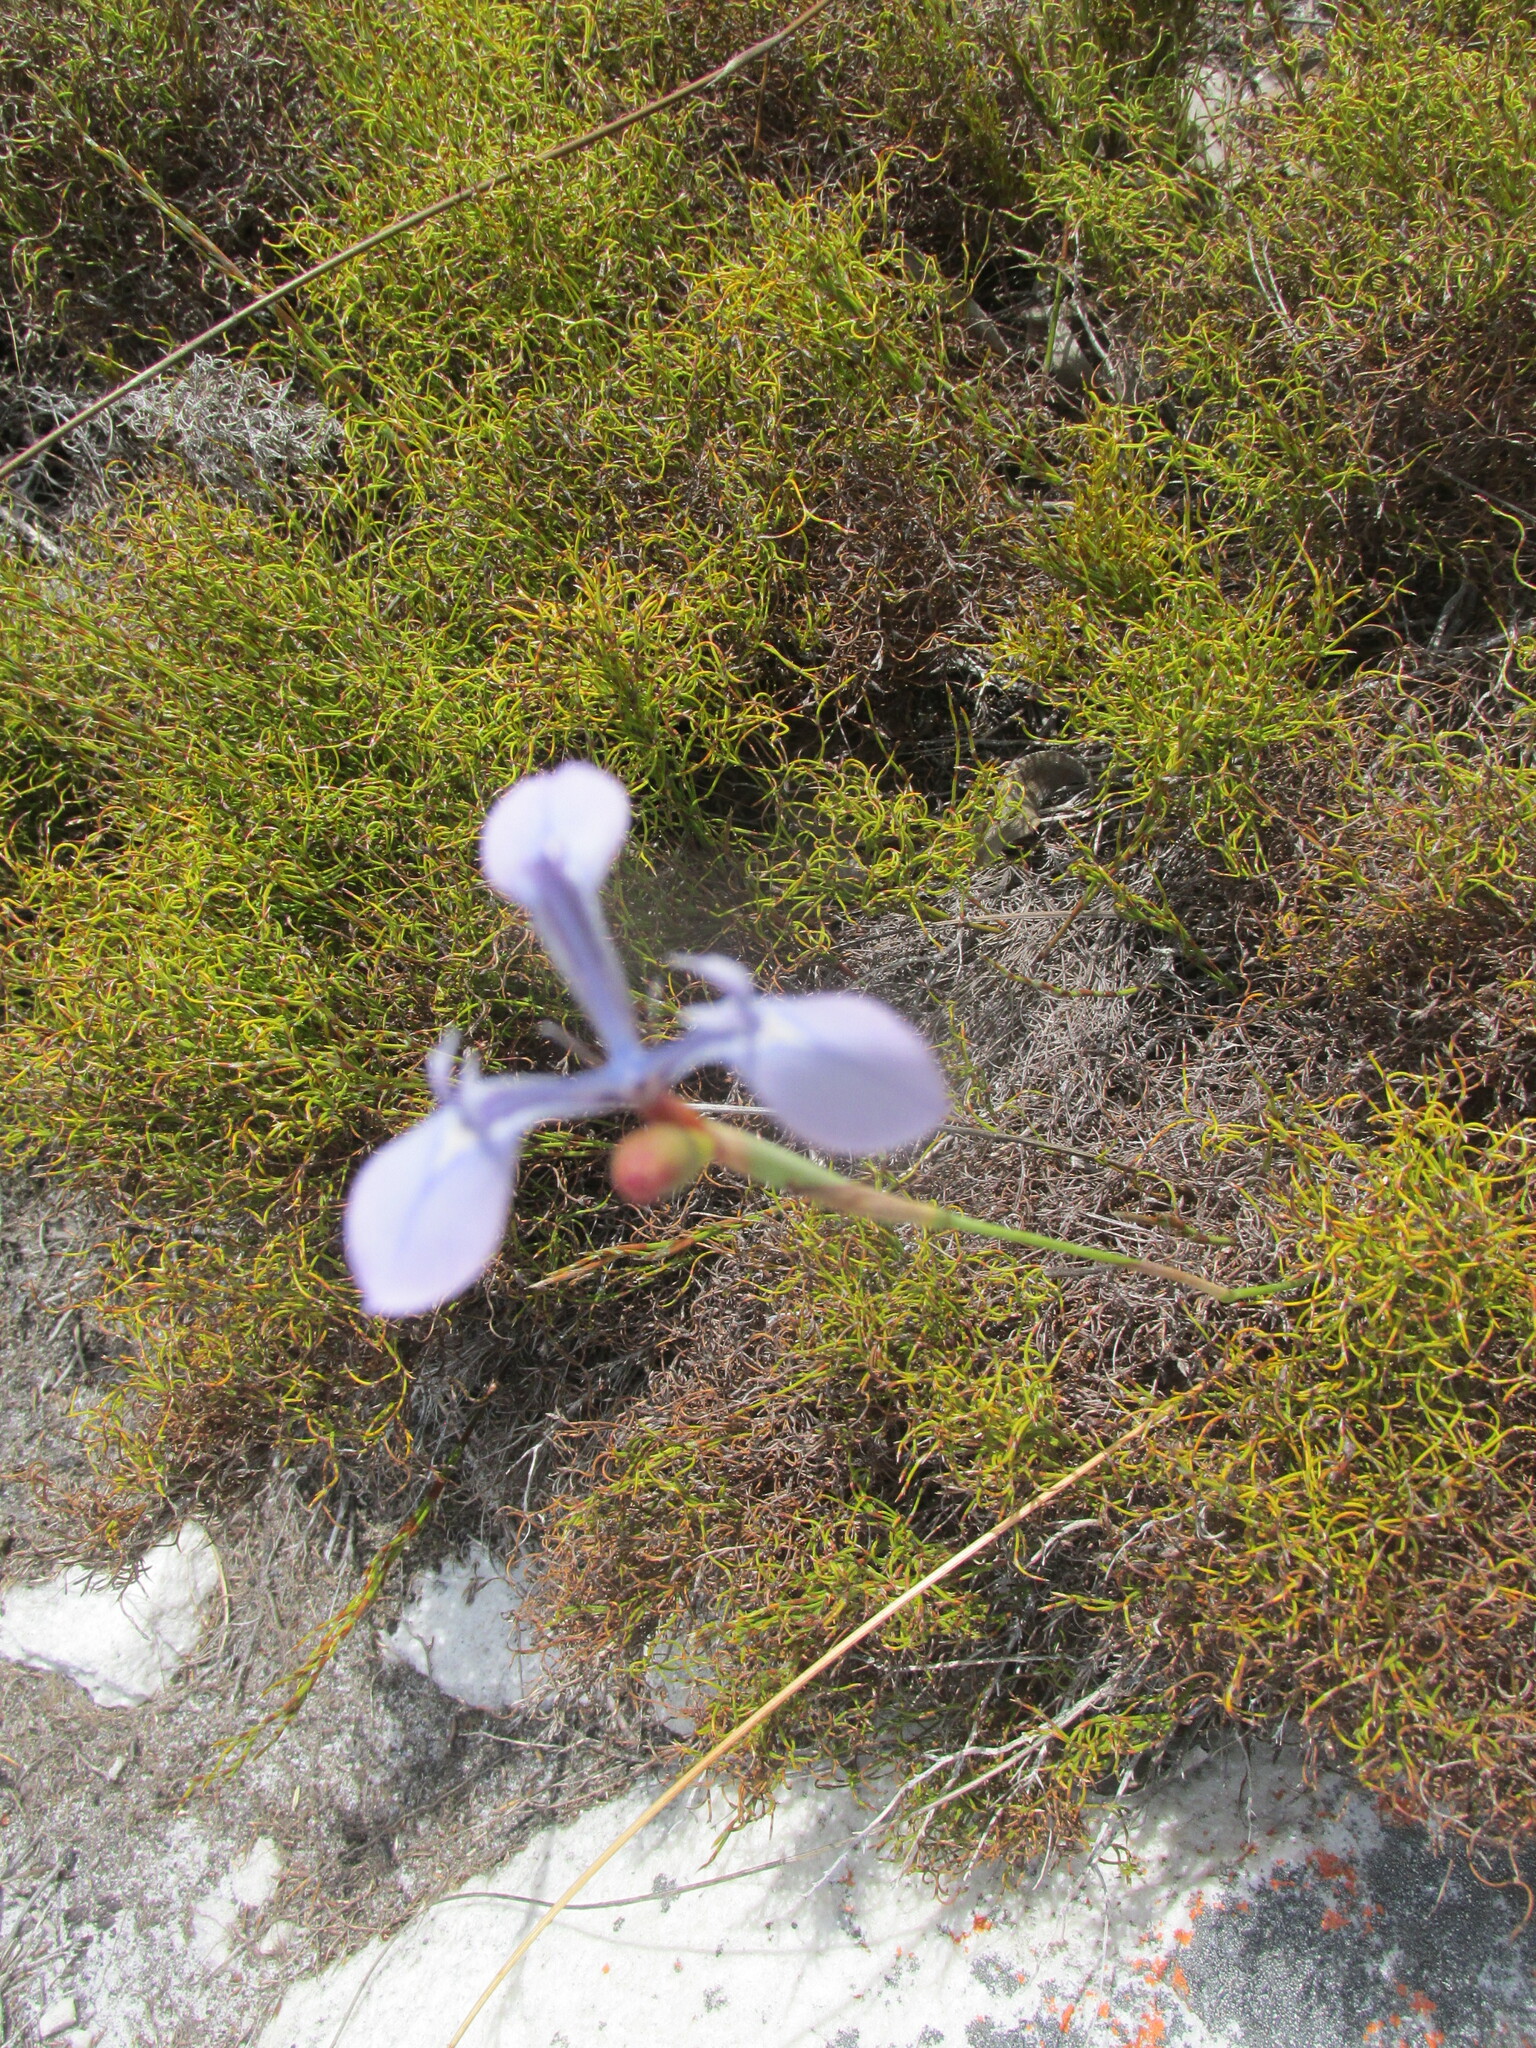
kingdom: Plantae
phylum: Tracheophyta
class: Liliopsida
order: Asparagales
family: Iridaceae
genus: Moraea
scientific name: Moraea tripetala
